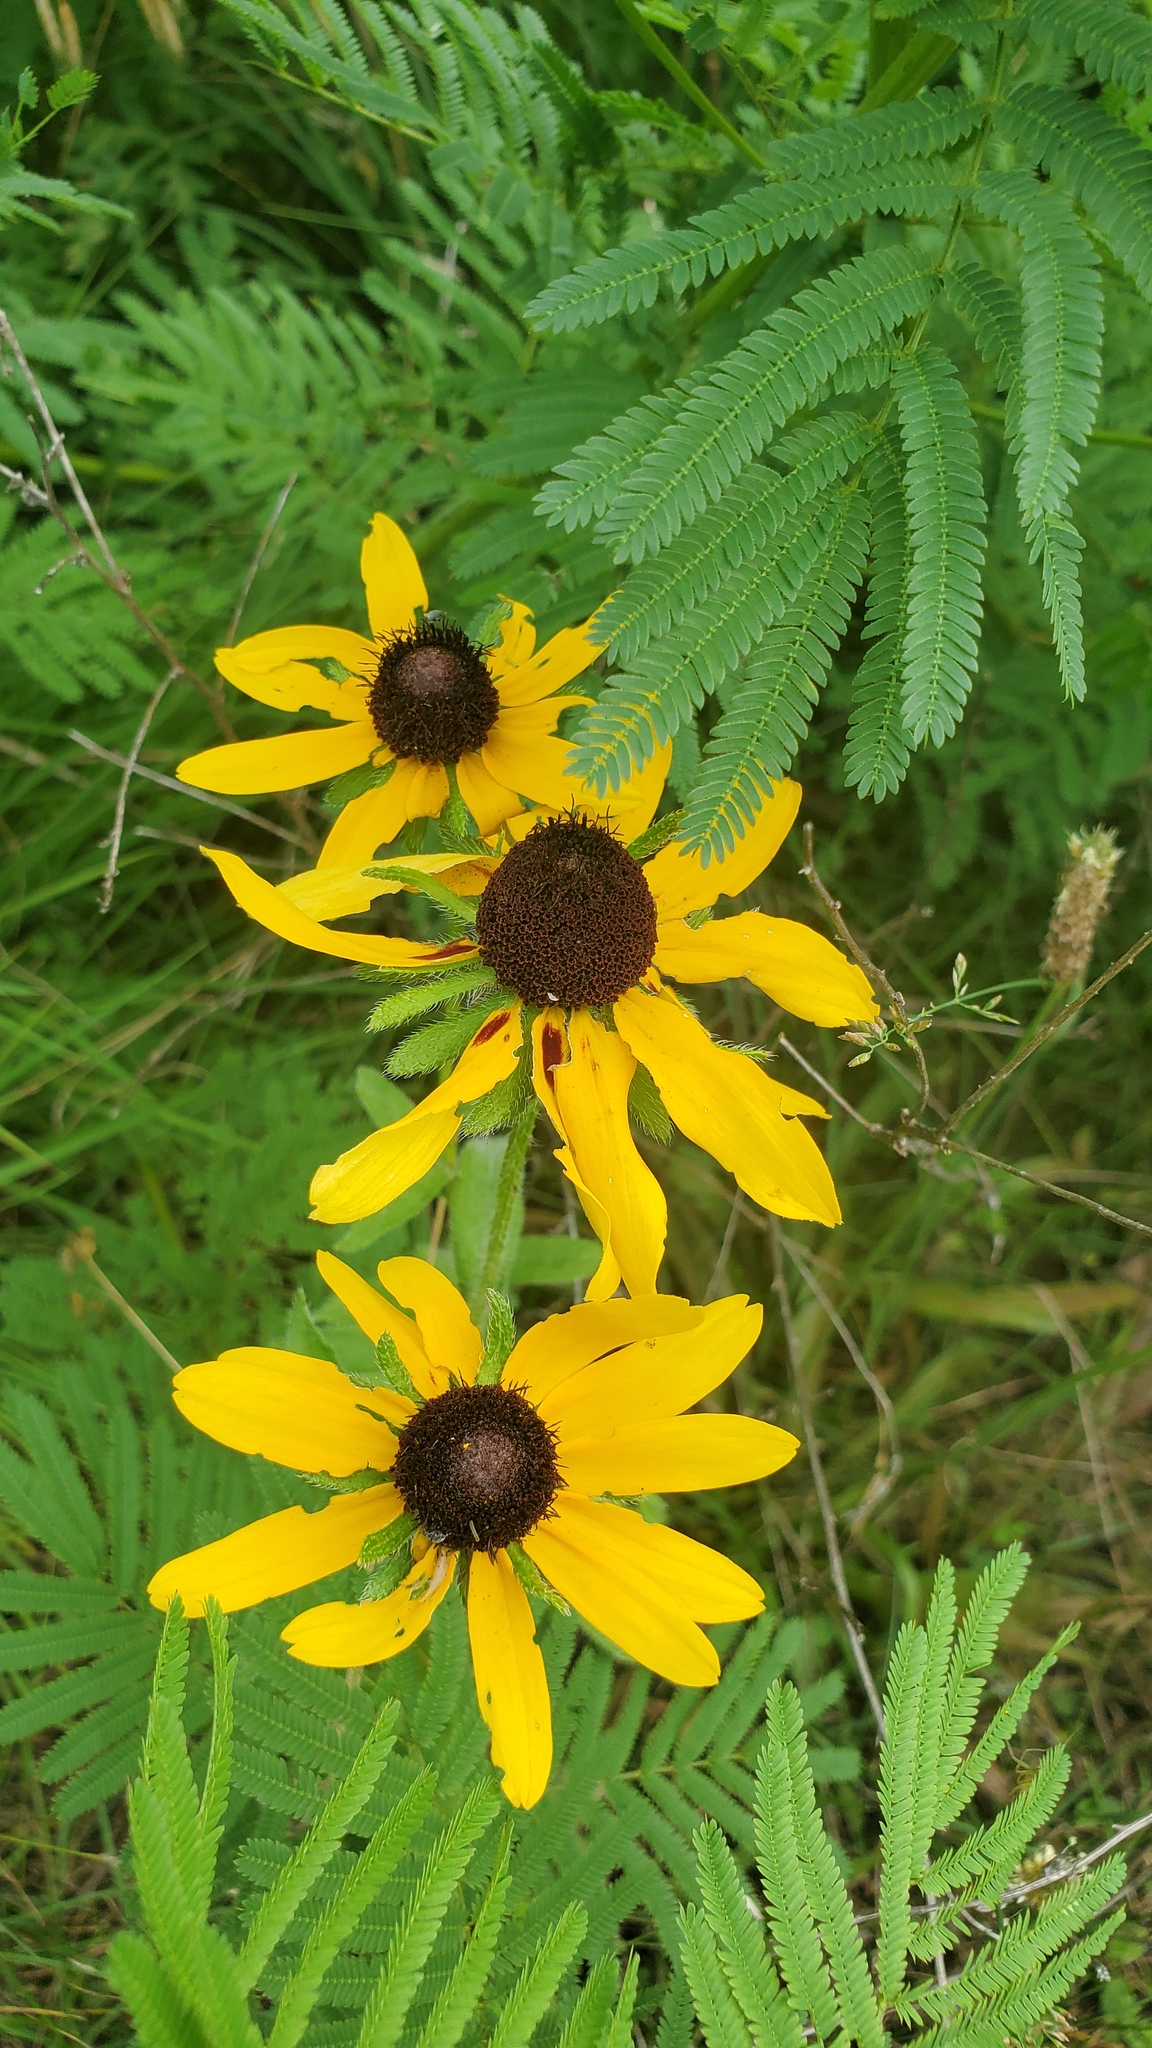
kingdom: Plantae
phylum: Tracheophyta
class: Magnoliopsida
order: Asterales
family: Asteraceae
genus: Rudbeckia
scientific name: Rudbeckia hirta
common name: Black-eyed-susan
